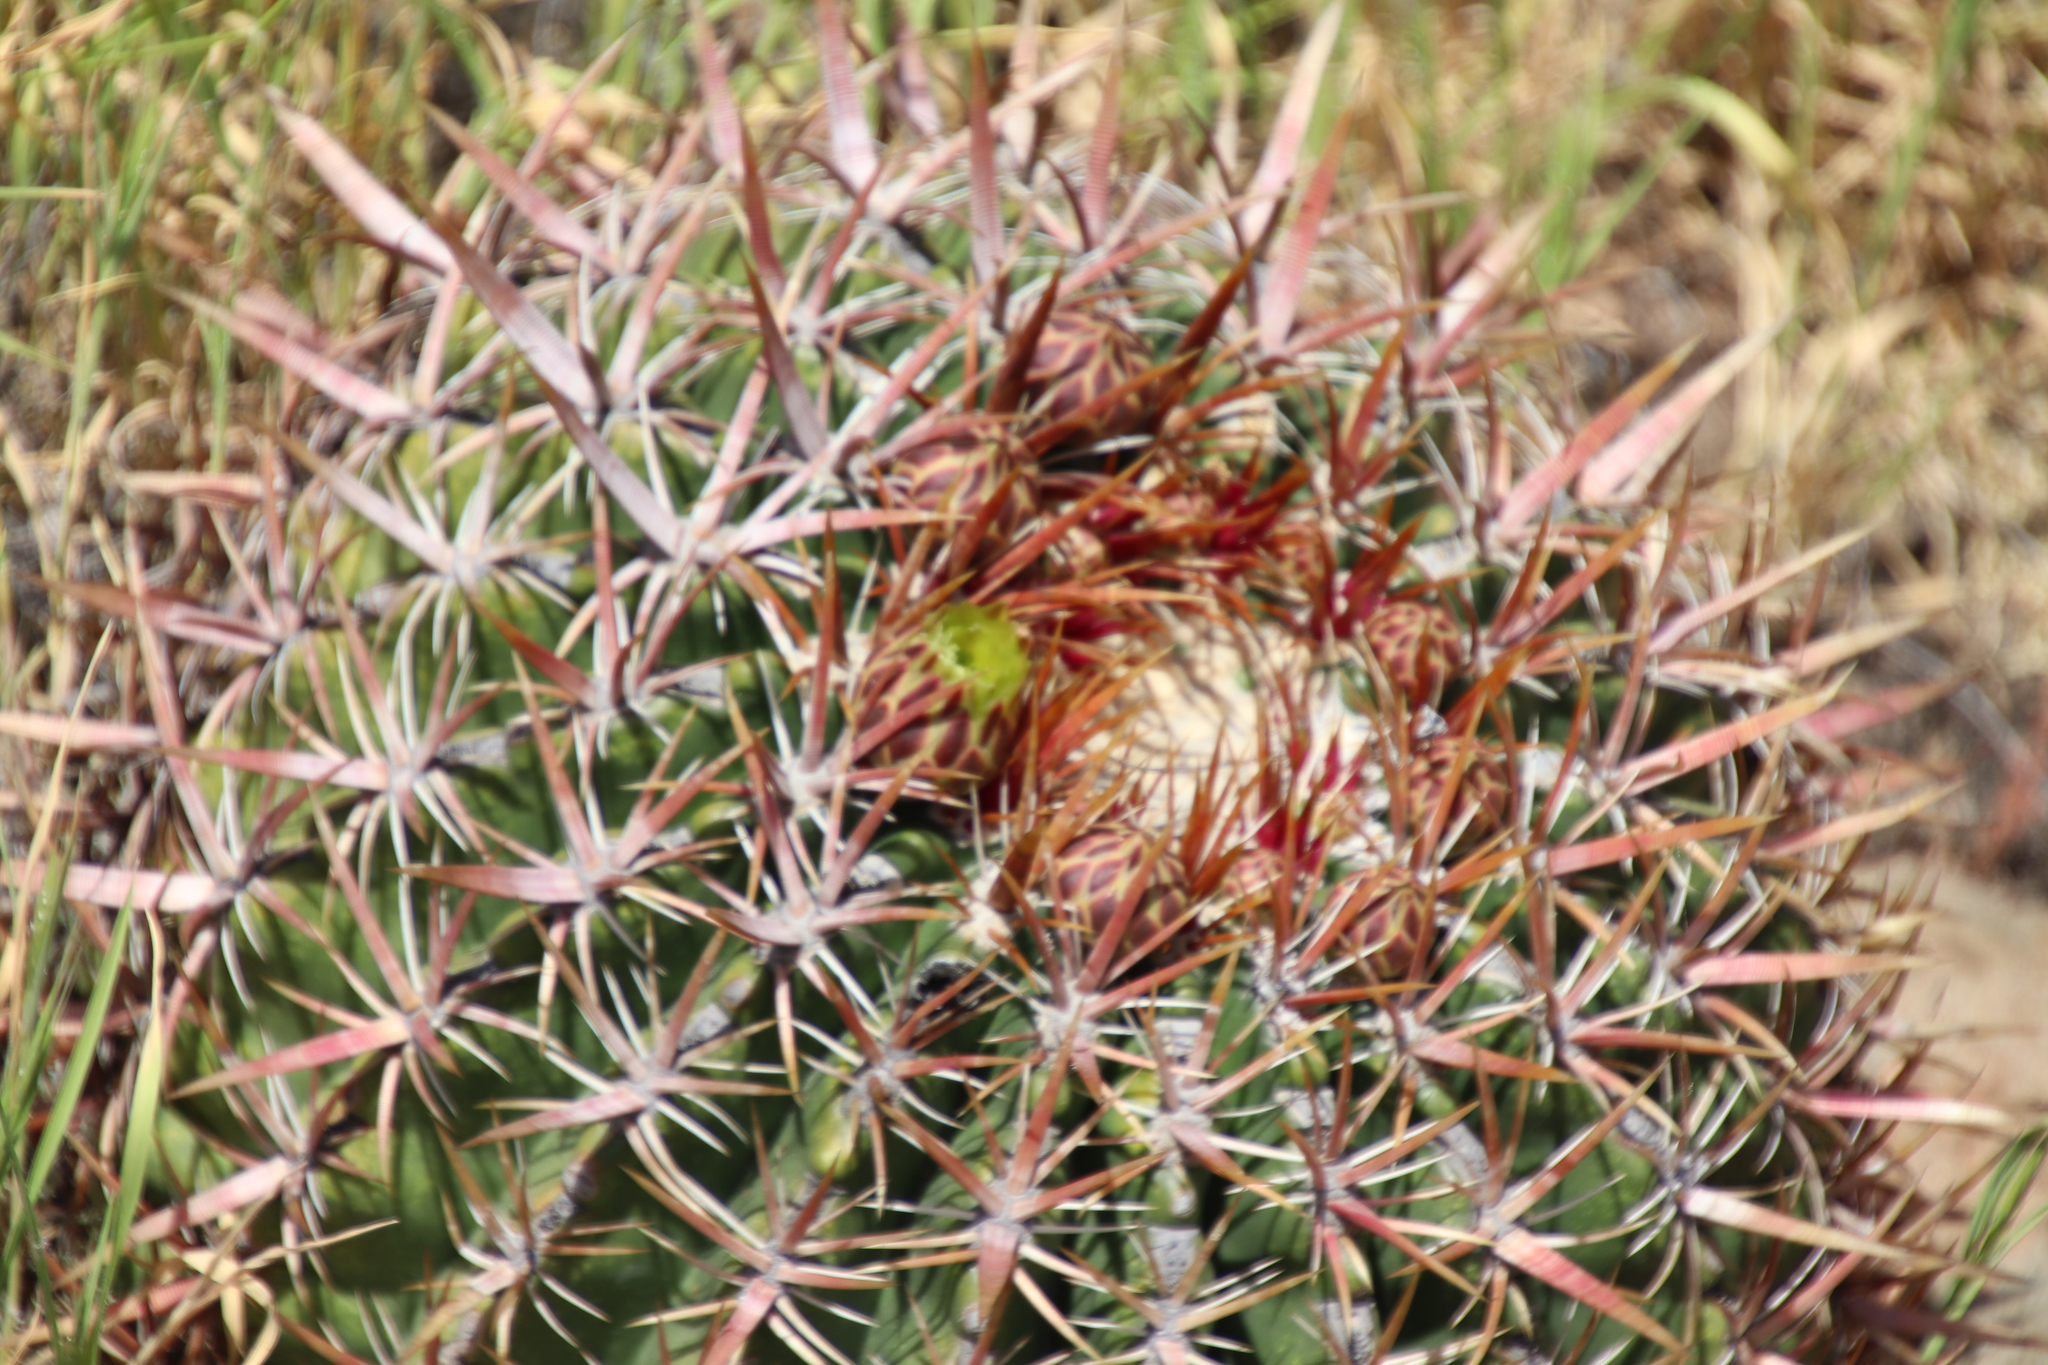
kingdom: Plantae
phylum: Tracheophyta
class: Magnoliopsida
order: Caryophyllales
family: Cactaceae
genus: Ferocactus
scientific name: Ferocactus viridescens
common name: San diego barrel cactus
